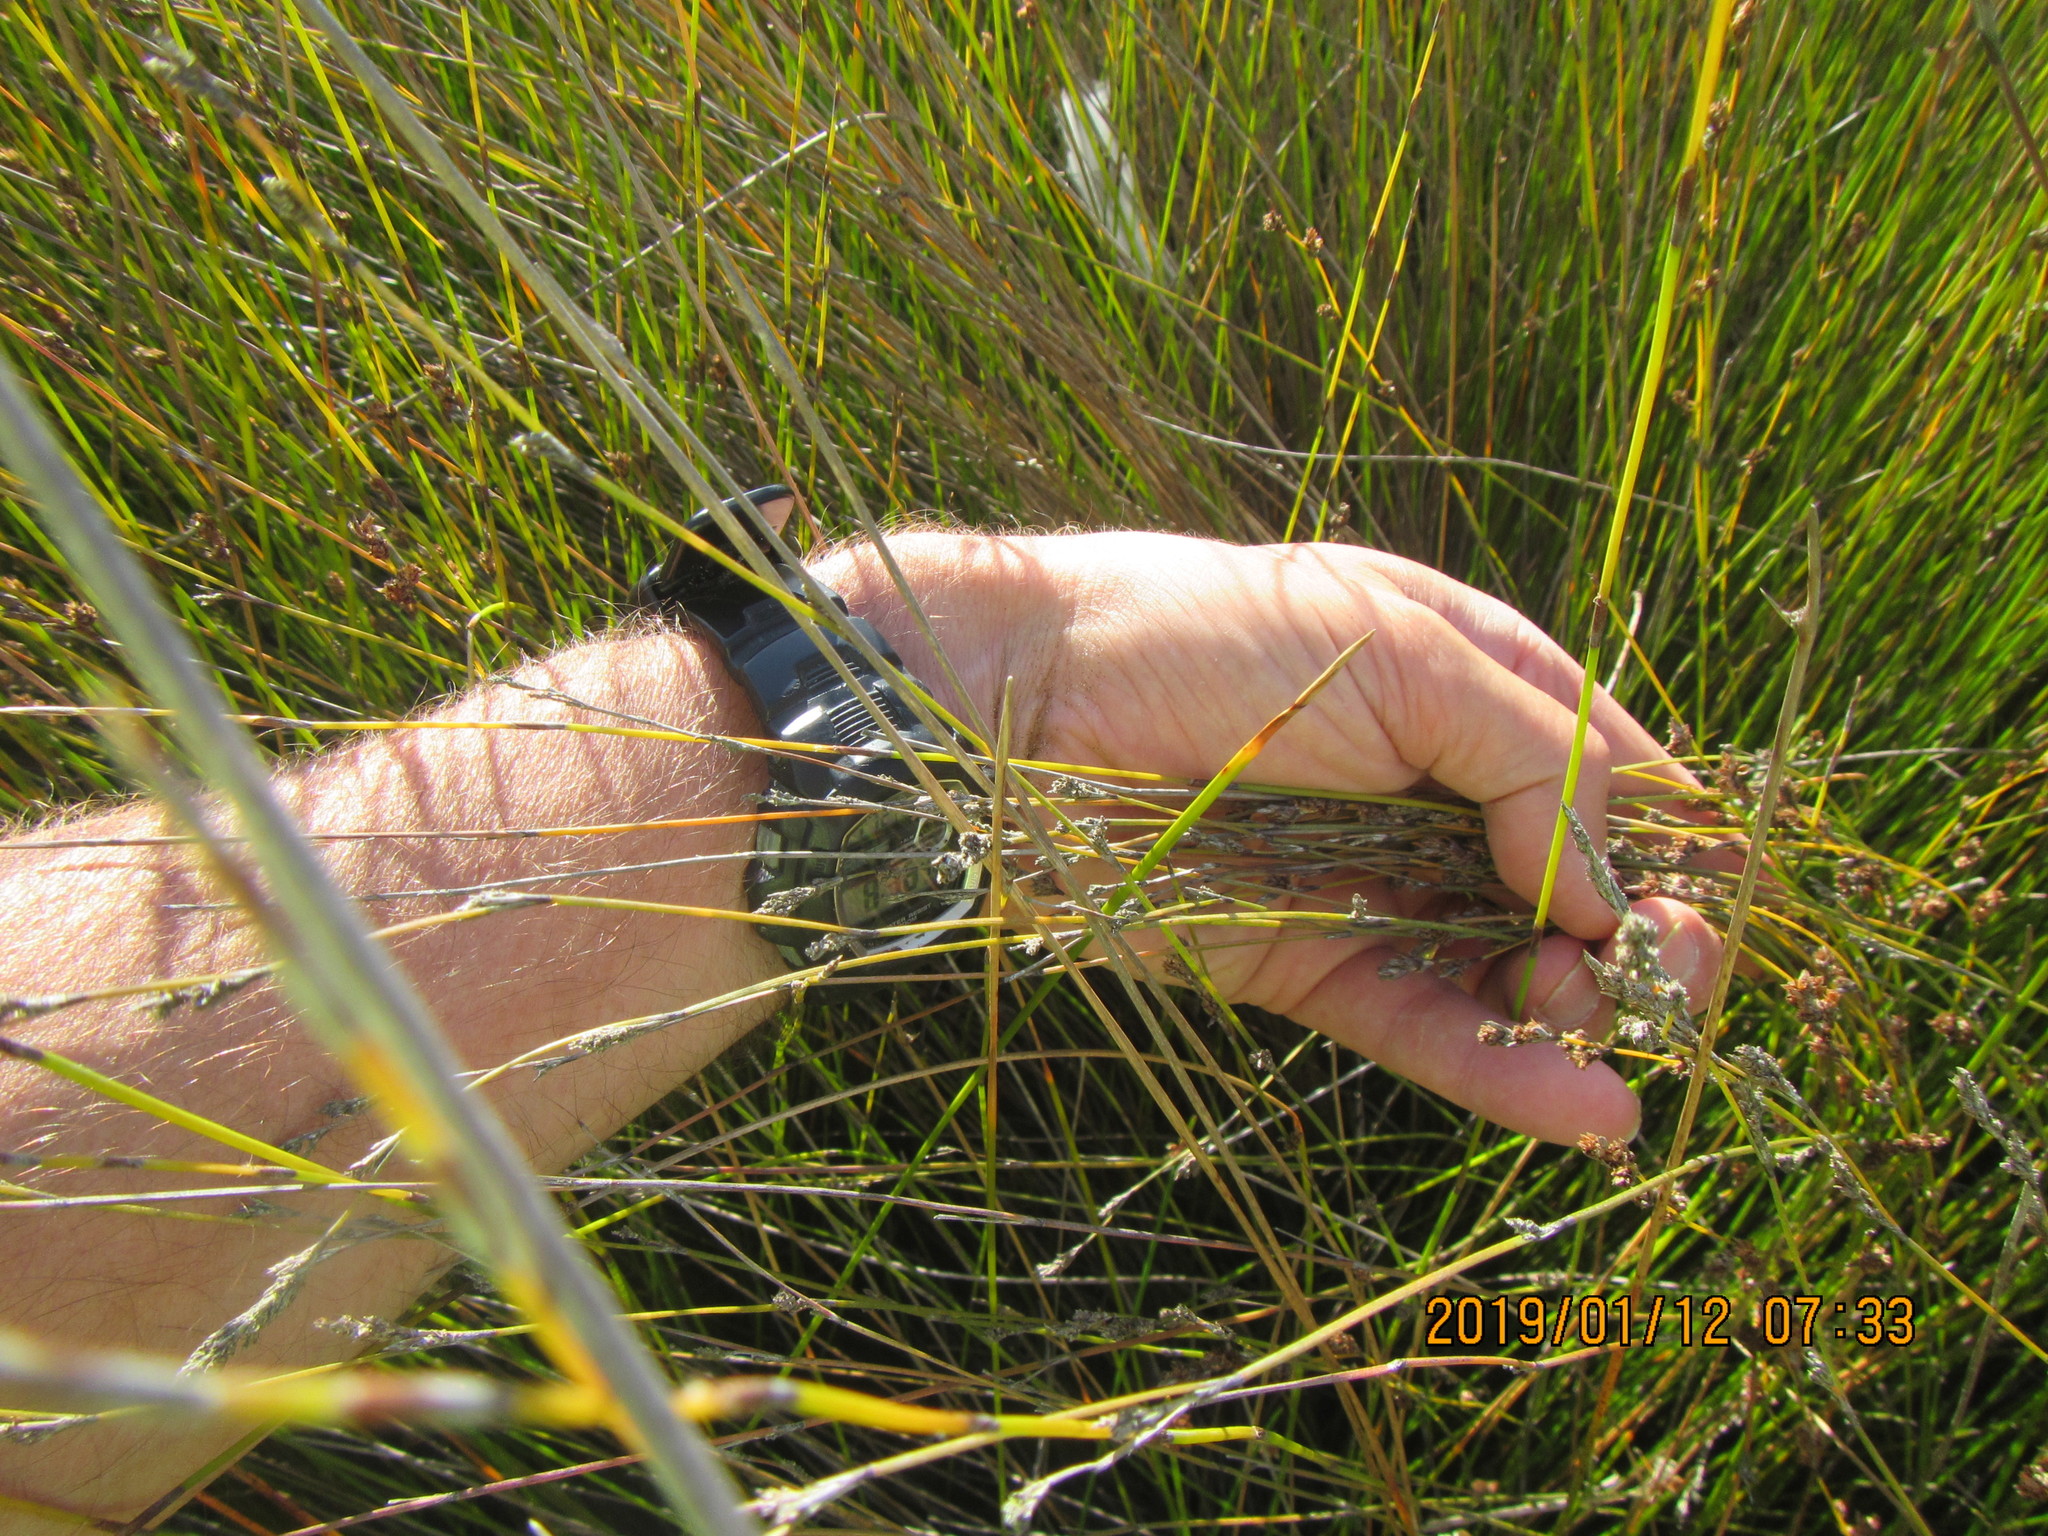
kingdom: Plantae
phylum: Tracheophyta
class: Liliopsida
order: Poales
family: Restionaceae
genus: Apodasmia
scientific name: Apodasmia similis
